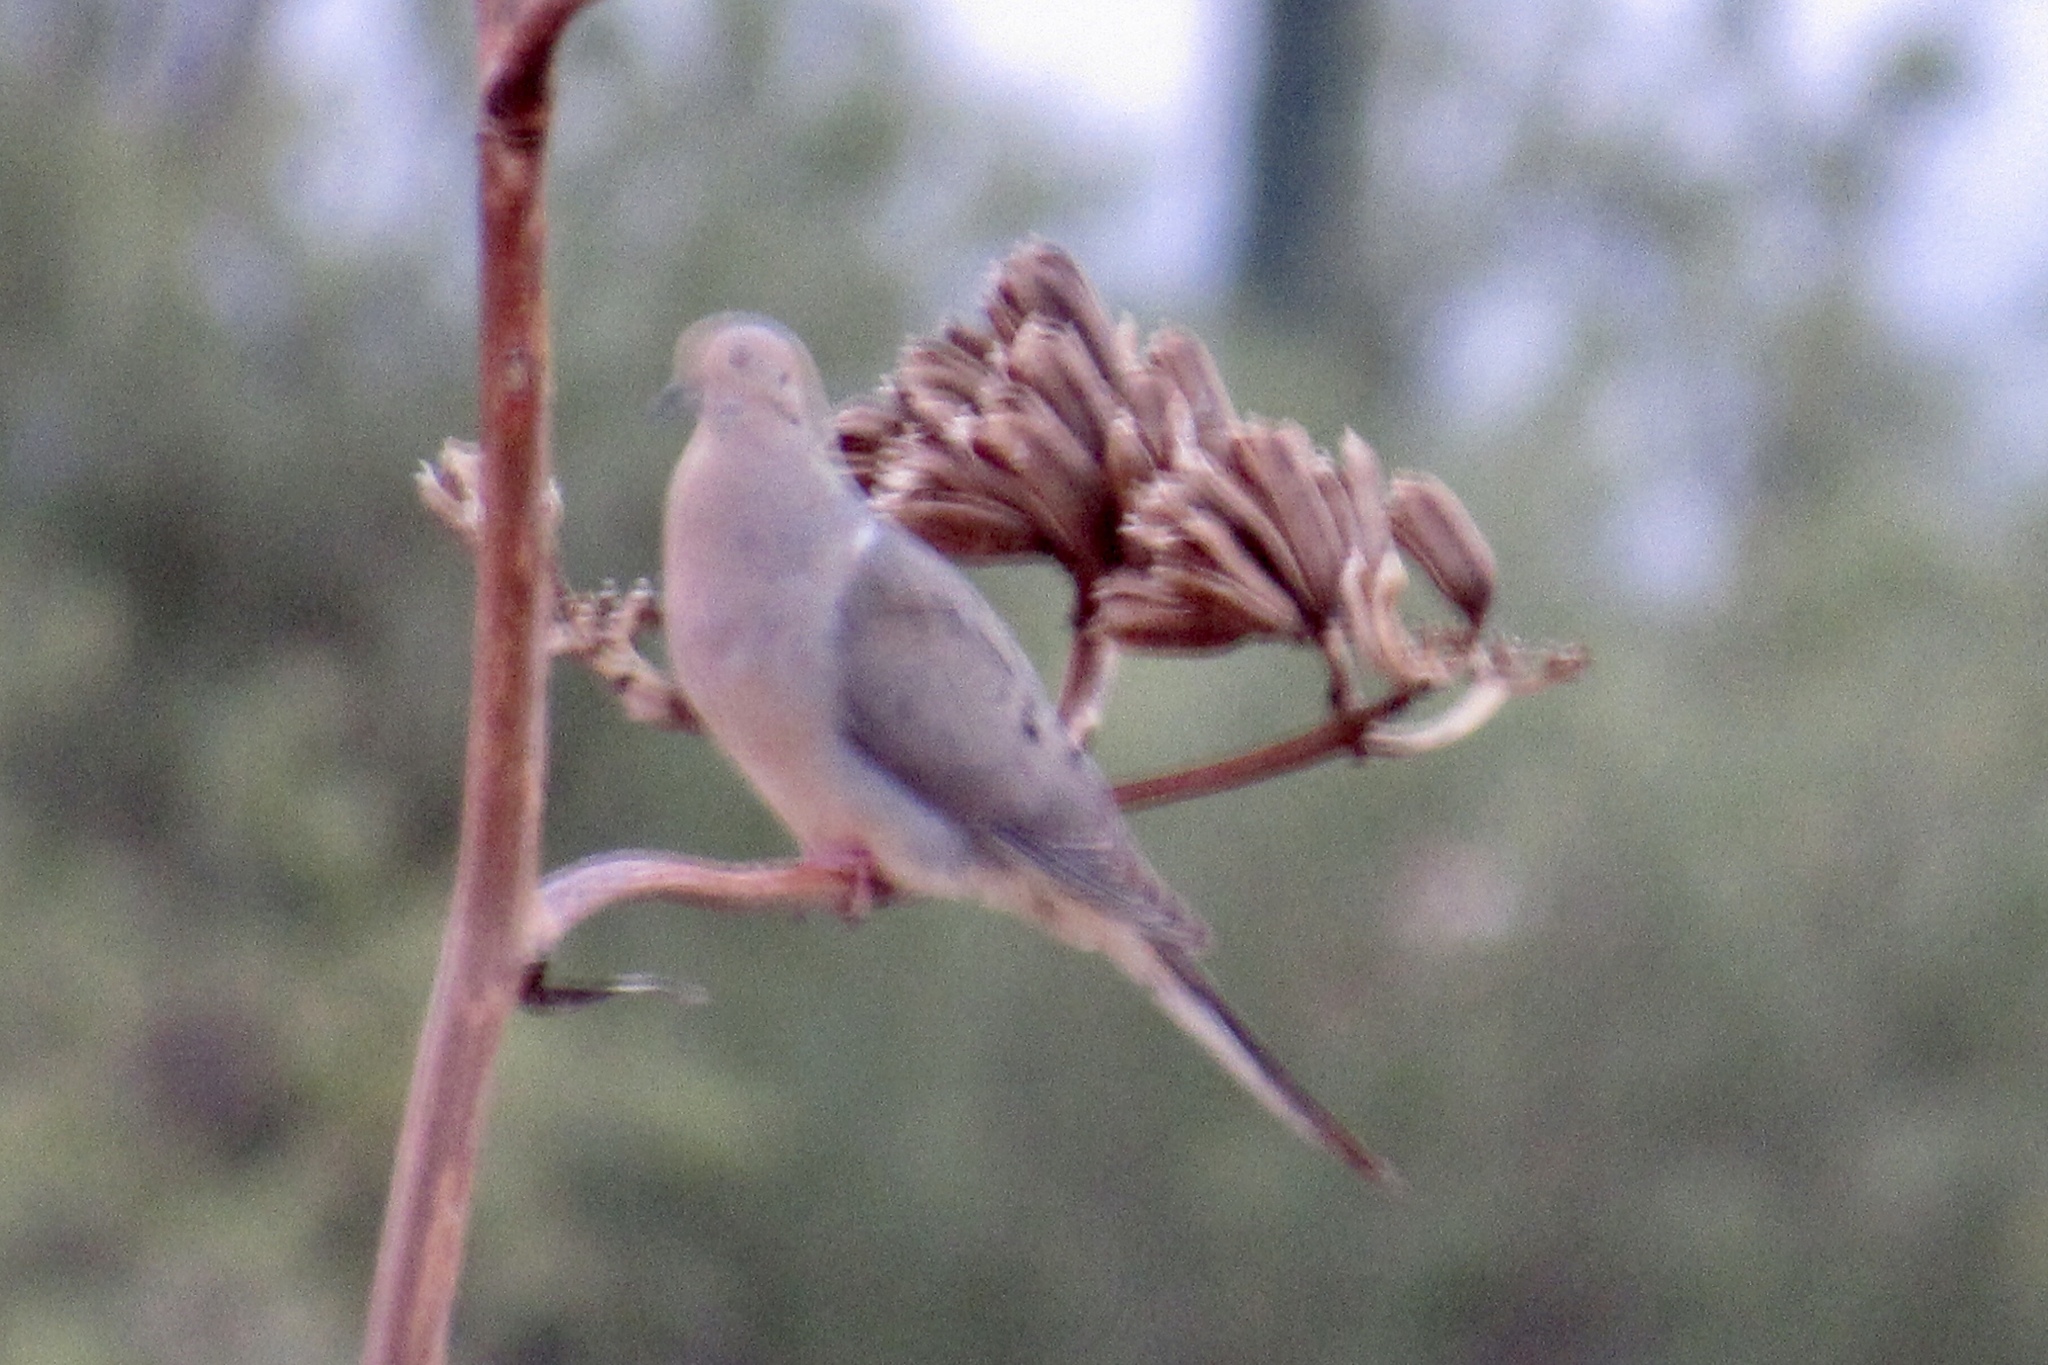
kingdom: Animalia
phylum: Chordata
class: Aves
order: Columbiformes
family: Columbidae
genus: Zenaida
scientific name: Zenaida macroura
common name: Mourning dove
